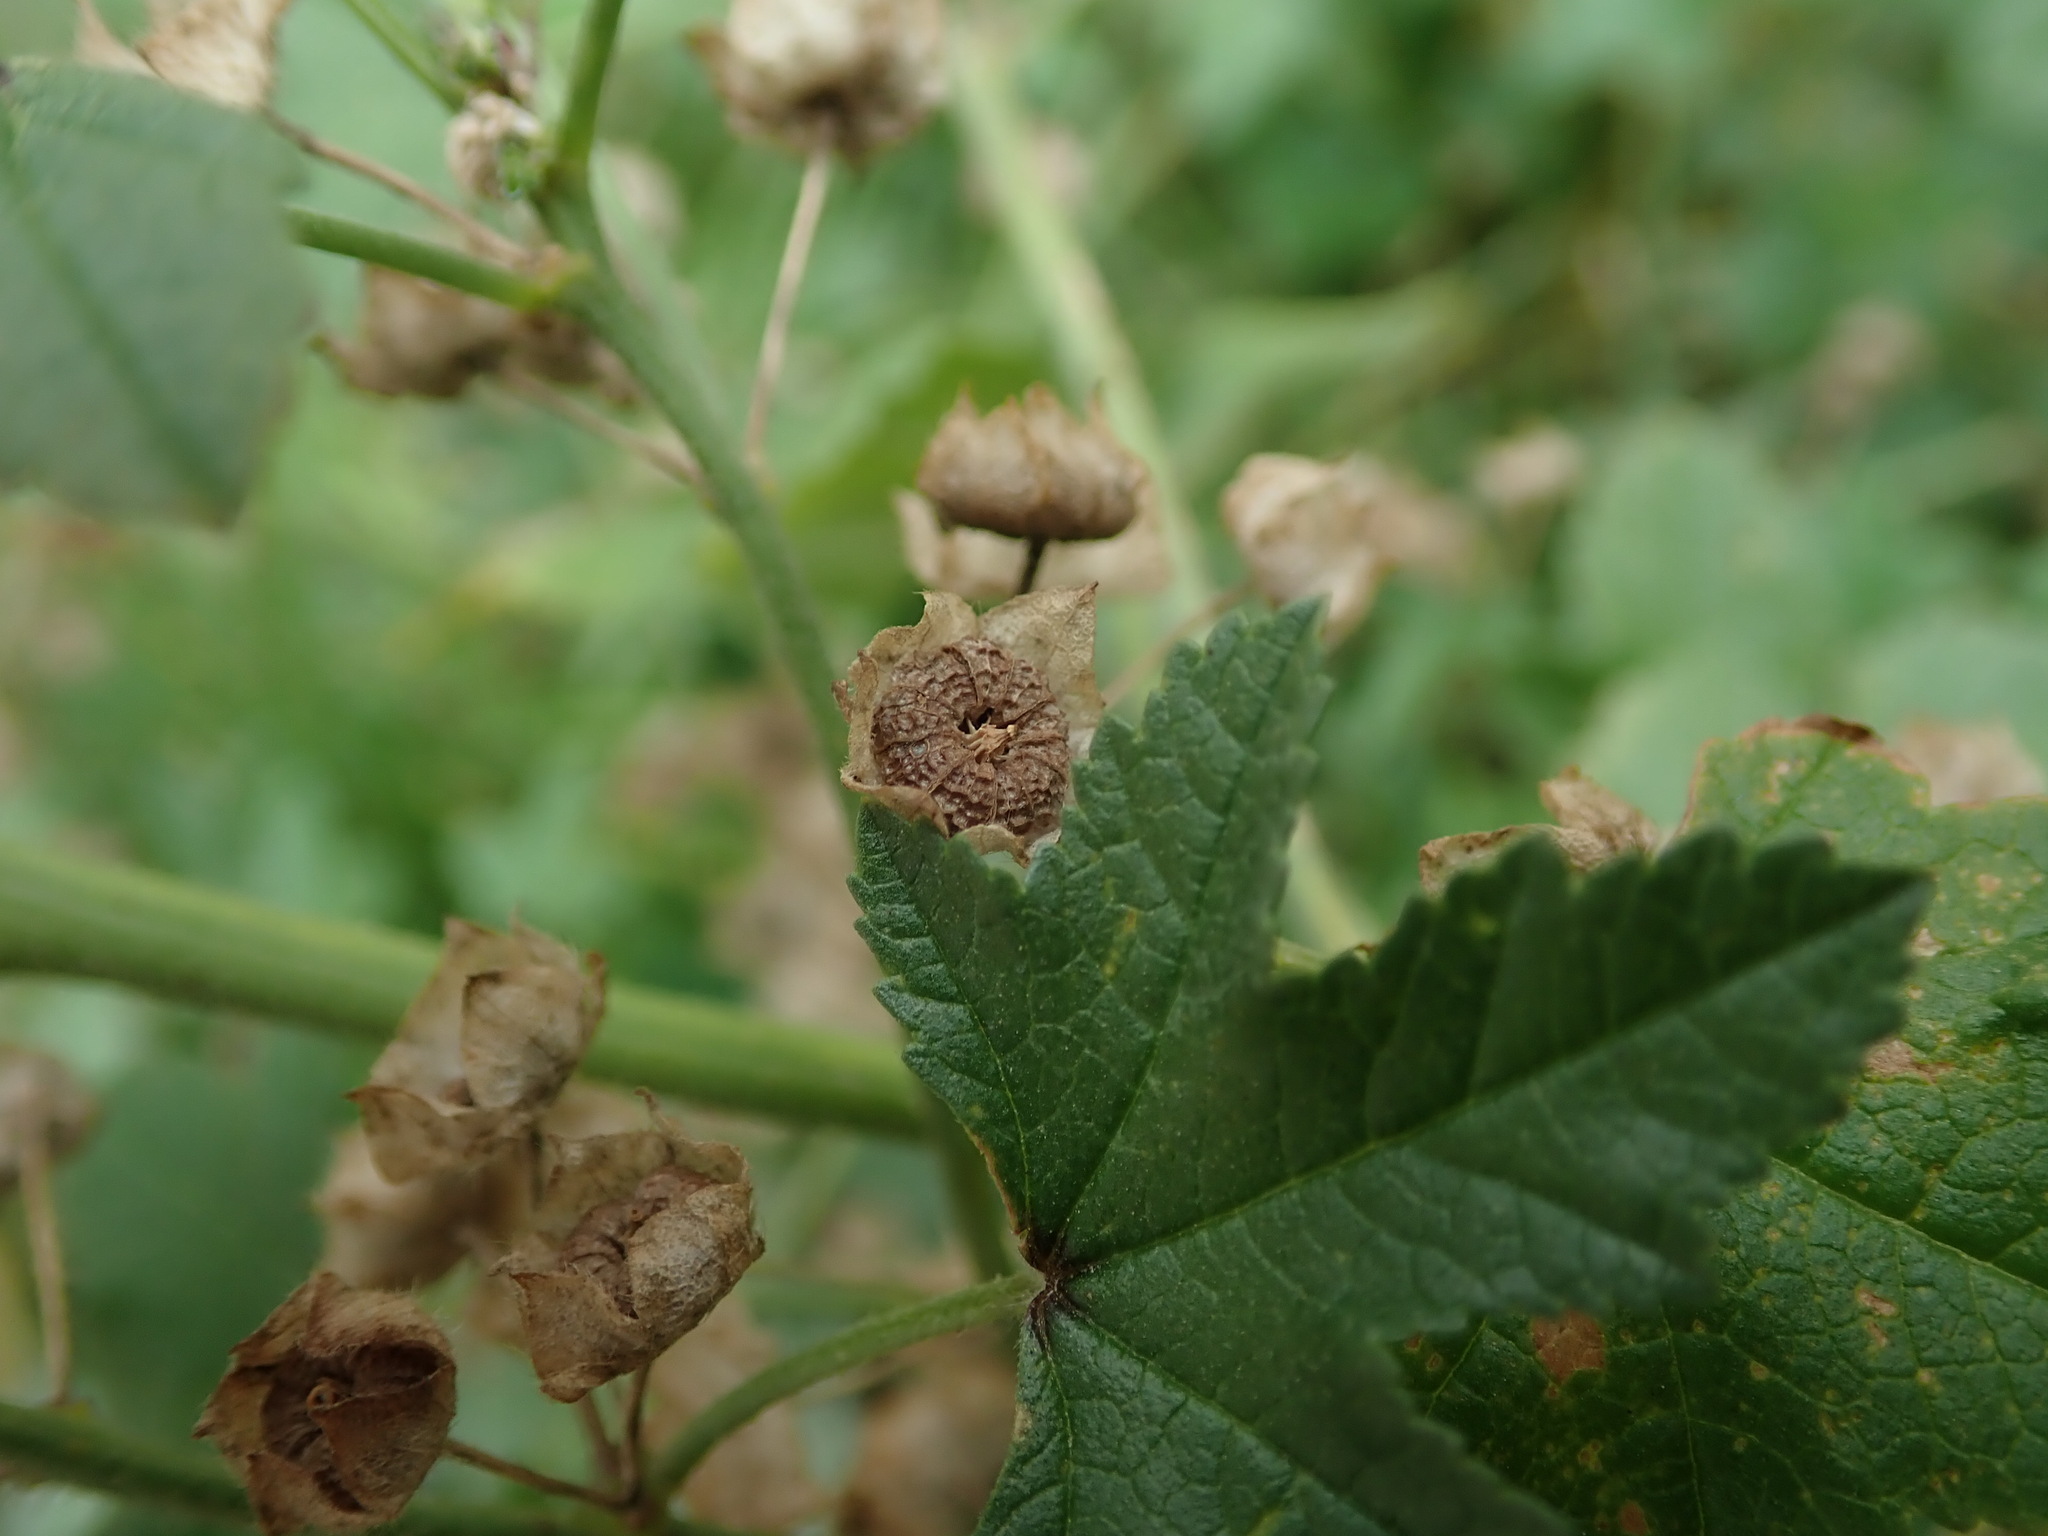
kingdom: Plantae
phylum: Tracheophyta
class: Magnoliopsida
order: Malvales
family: Malvaceae
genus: Malva
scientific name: Malva sylvestris
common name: Common mallow
